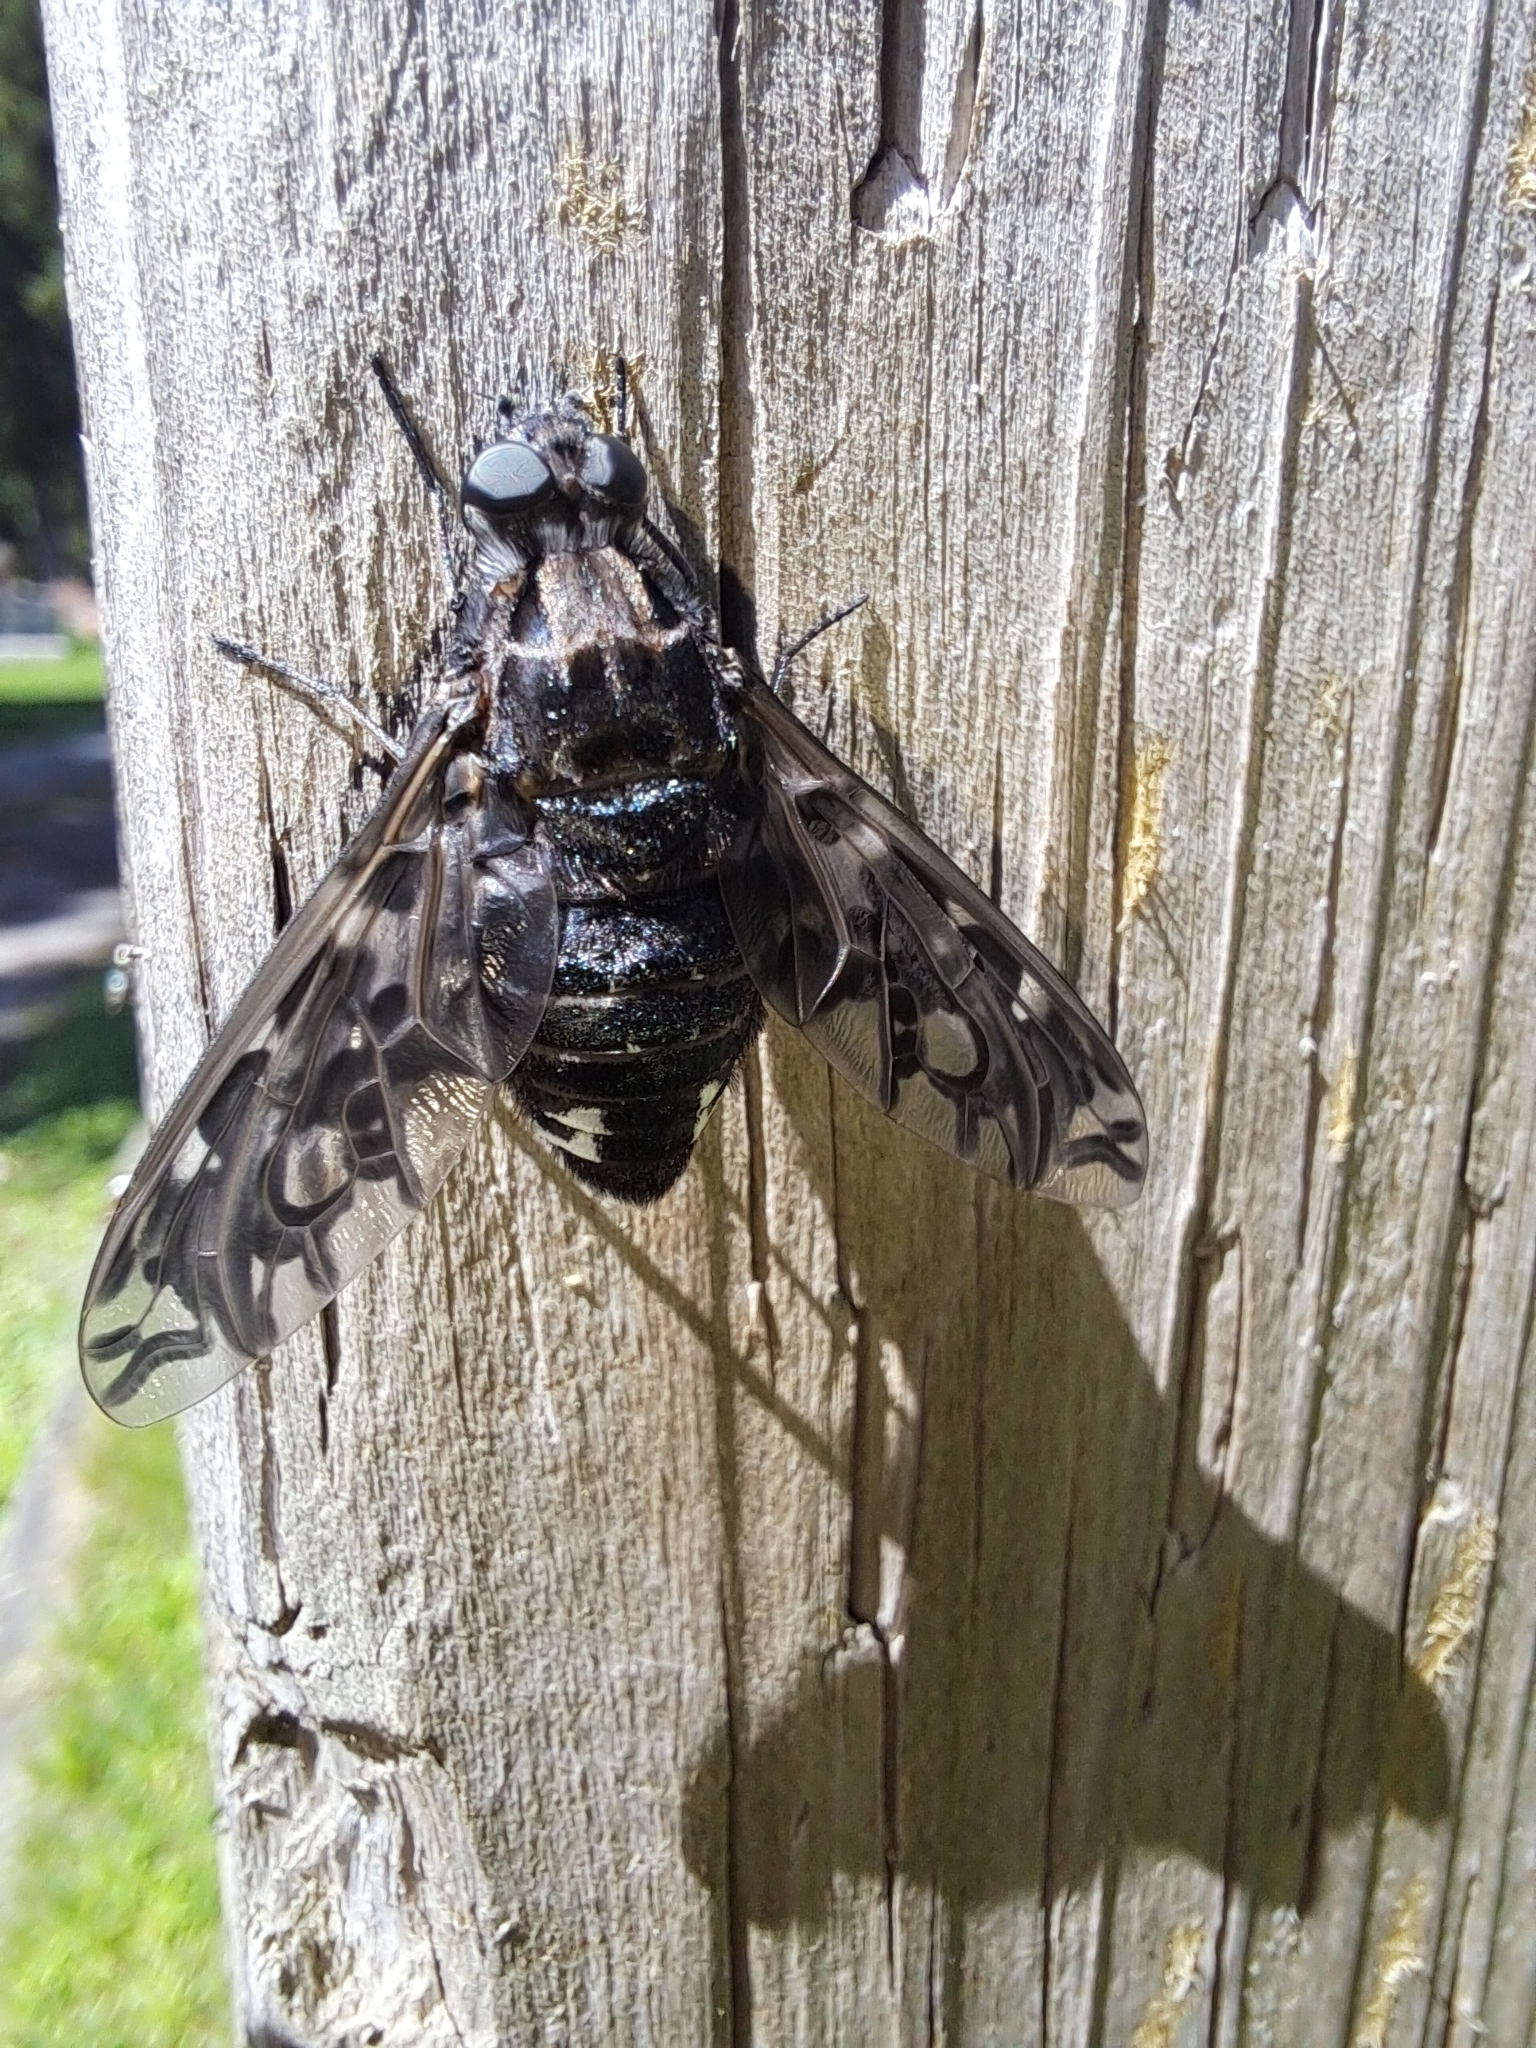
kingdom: Animalia
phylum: Arthropoda
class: Insecta
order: Diptera
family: Bombyliidae
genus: Xenox
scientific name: Xenox tigrinus
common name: Tiger bee fly
